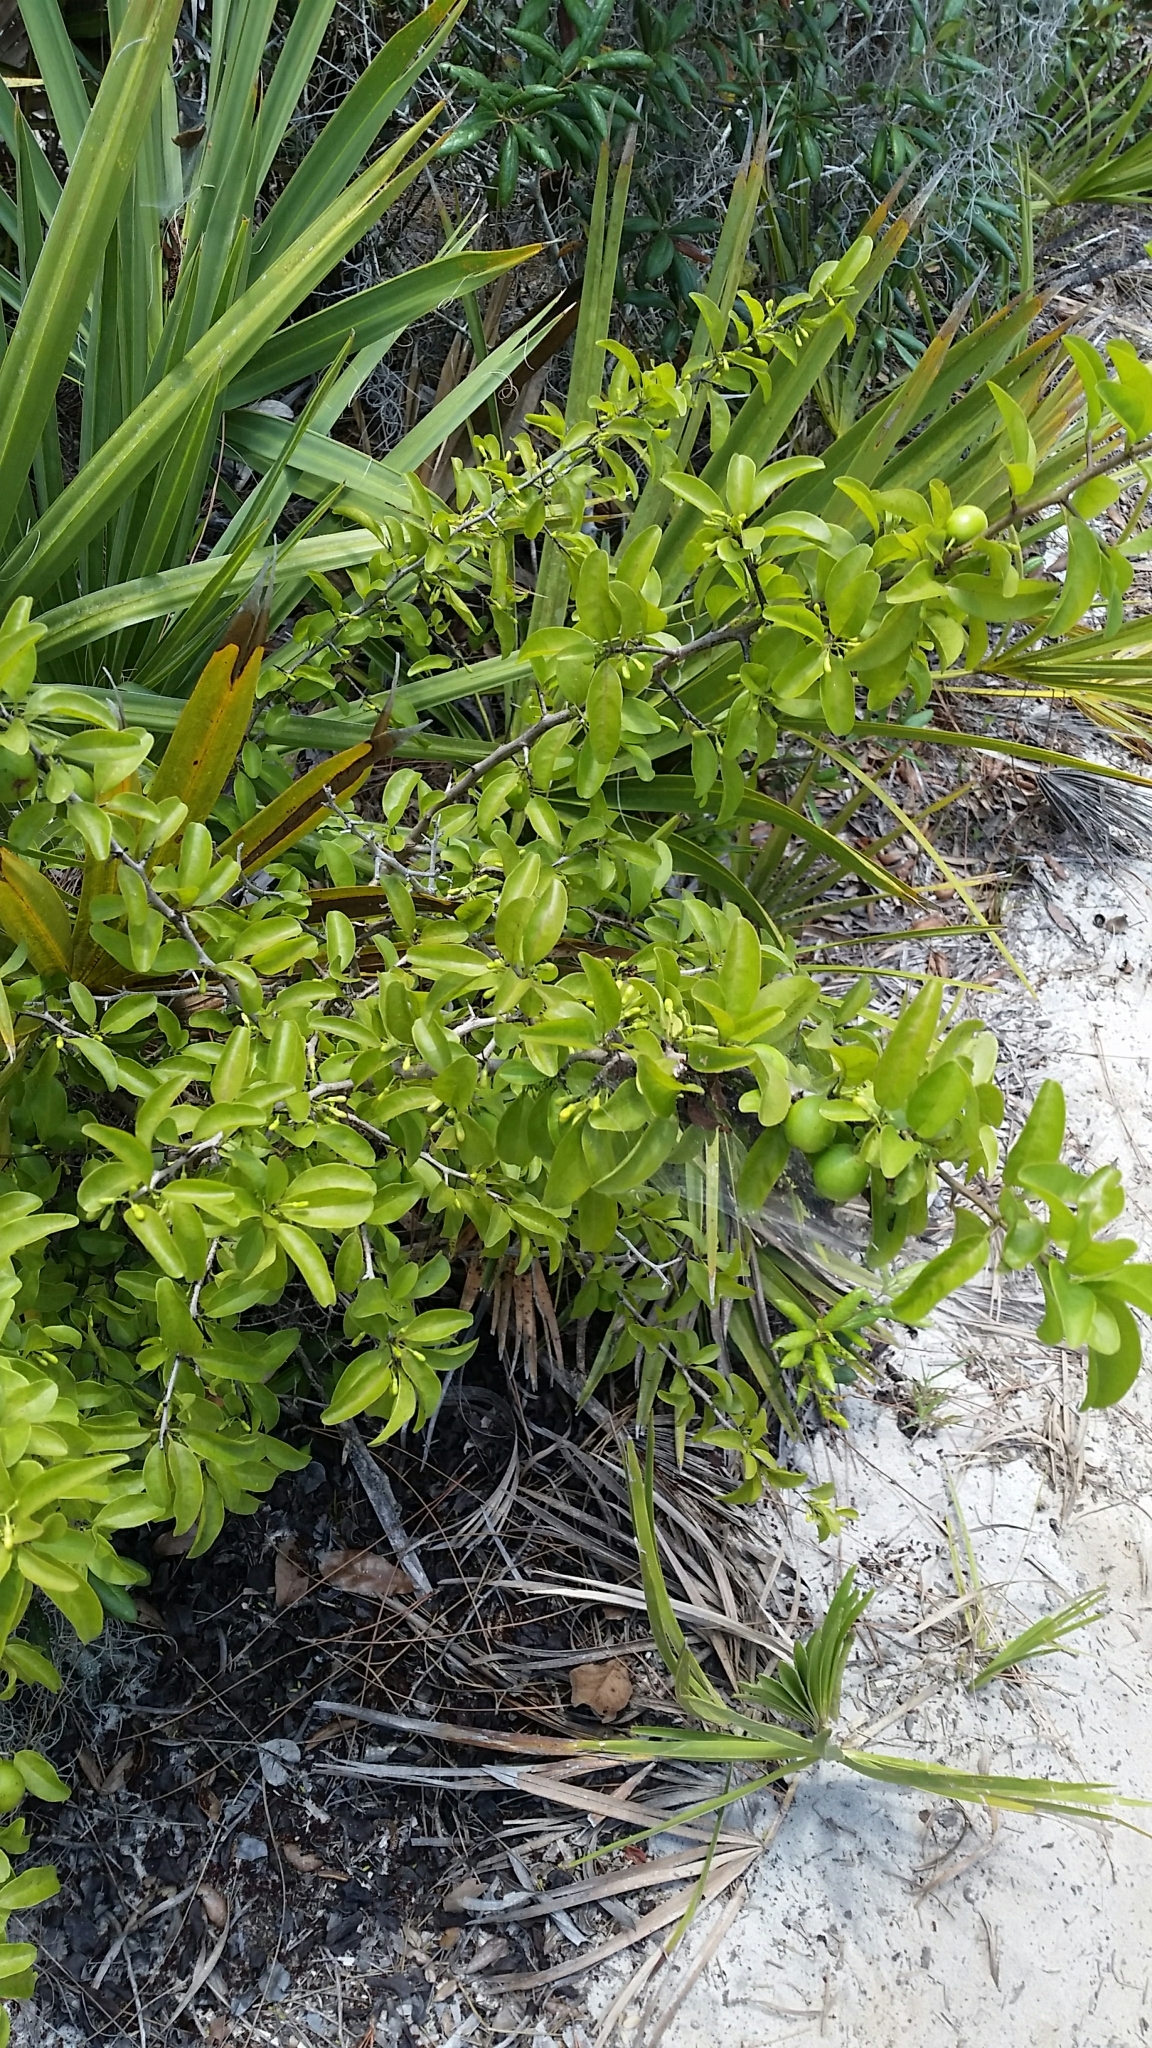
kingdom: Plantae
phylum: Tracheophyta
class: Magnoliopsida
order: Santalales
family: Ximeniaceae
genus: Ximenia
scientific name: Ximenia americana
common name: Tallowwood
